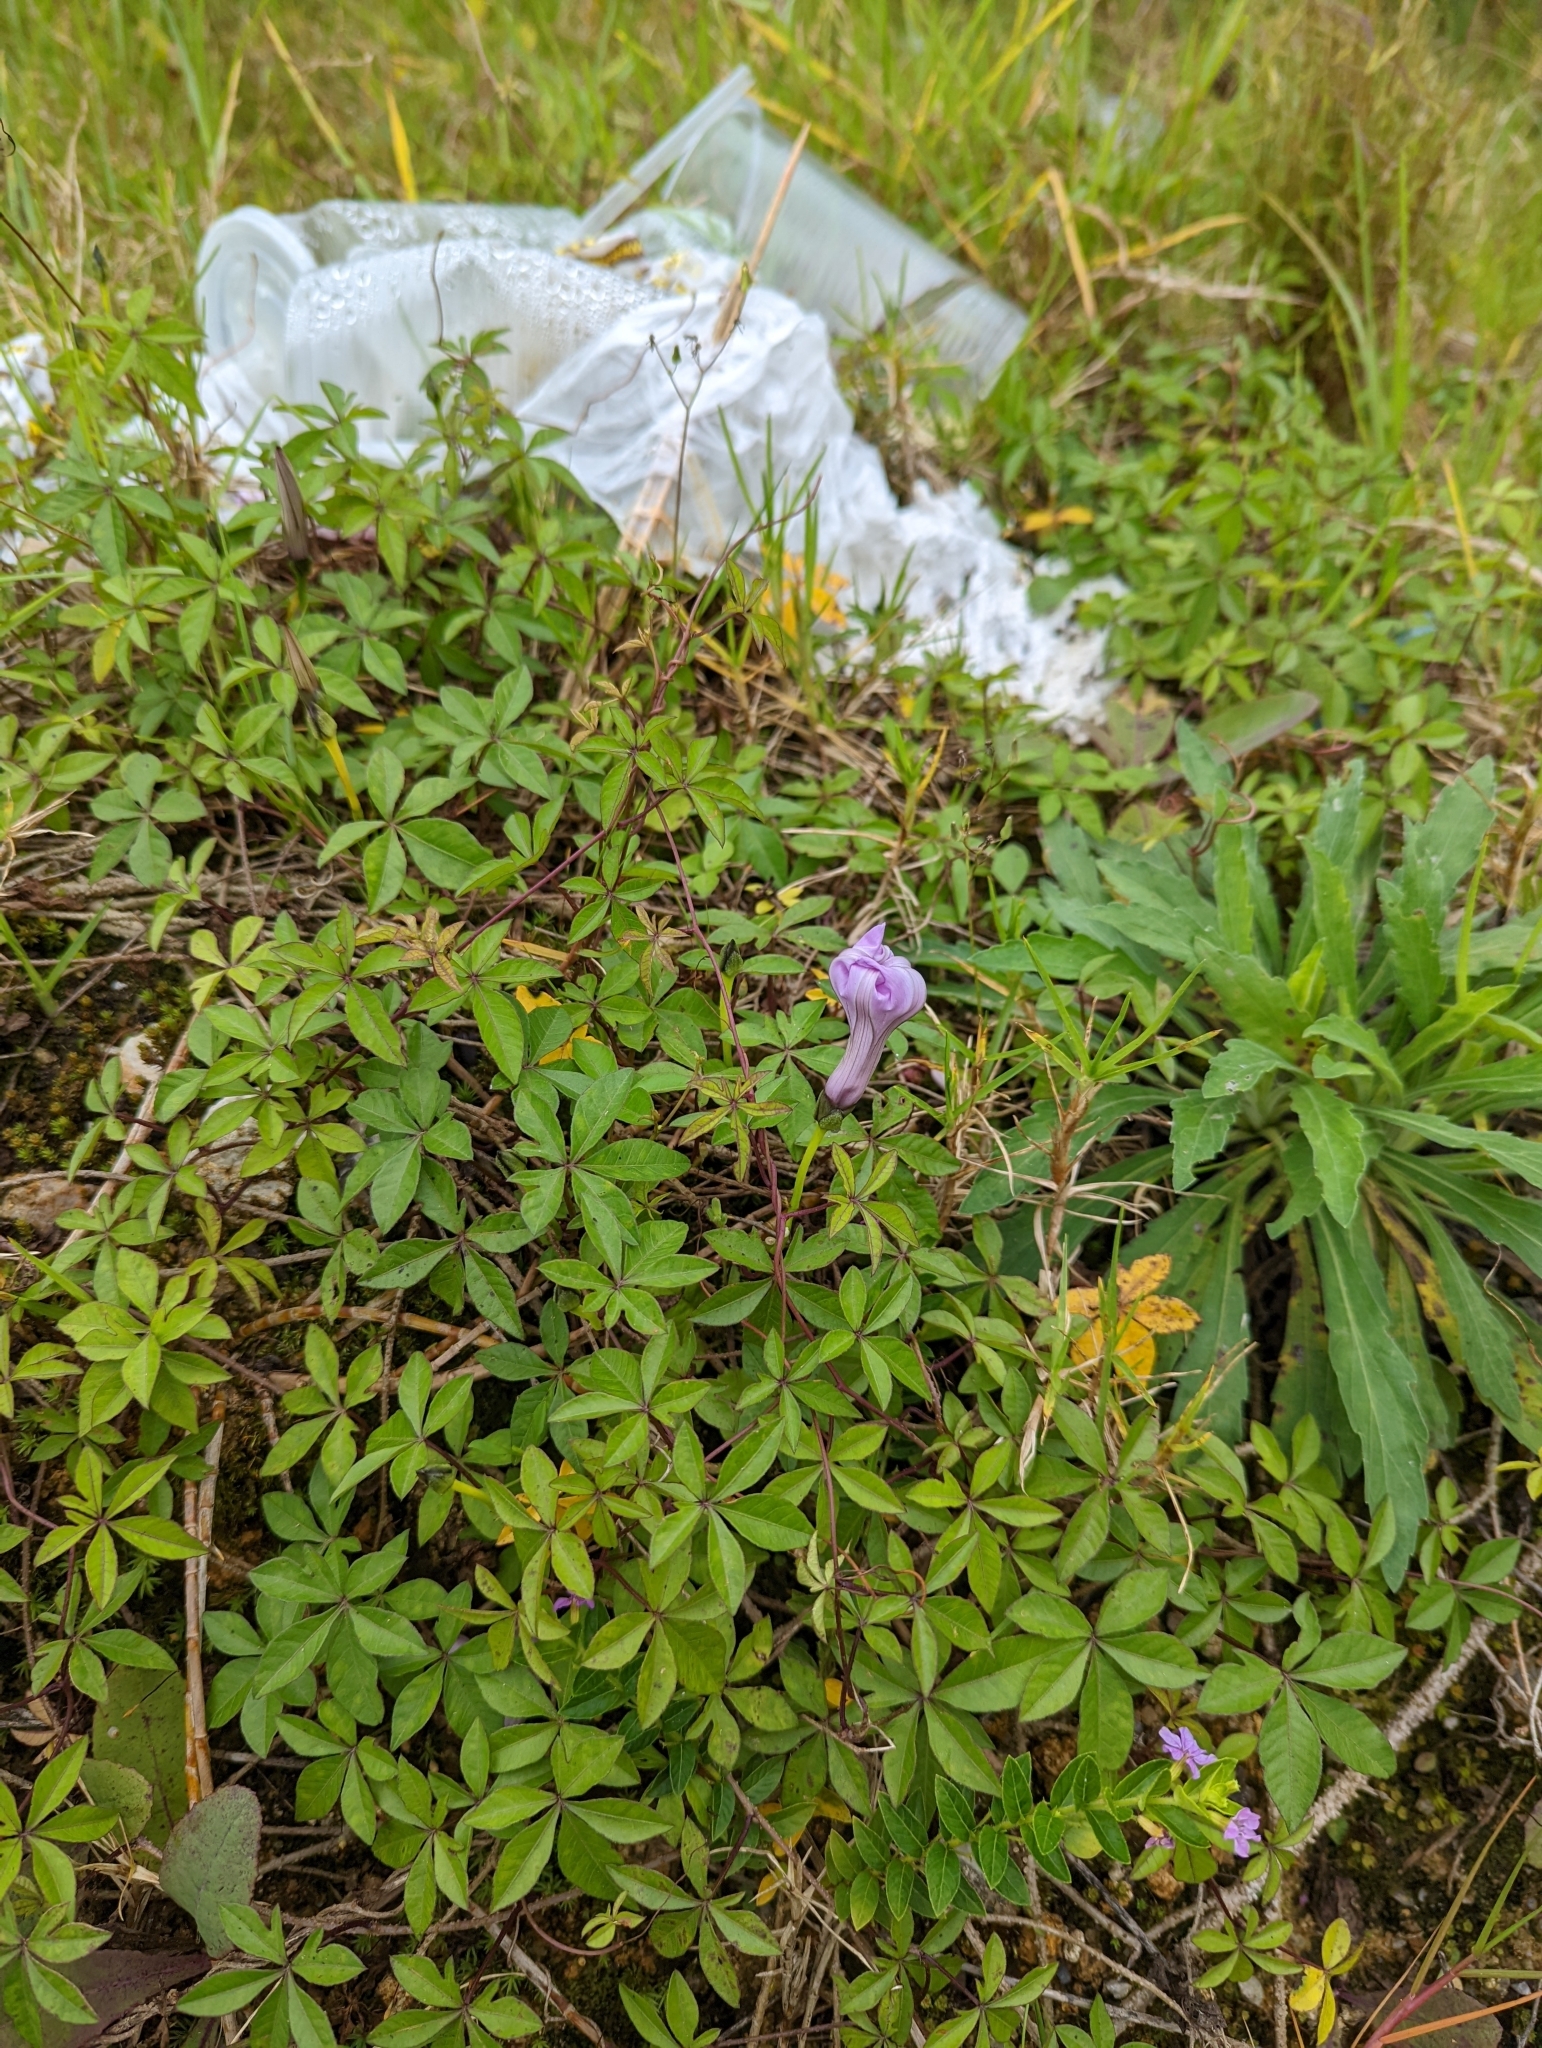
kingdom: Plantae
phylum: Tracheophyta
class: Magnoliopsida
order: Solanales
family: Convolvulaceae
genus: Ipomoea
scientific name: Ipomoea cairica
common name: Mile a minute vine
